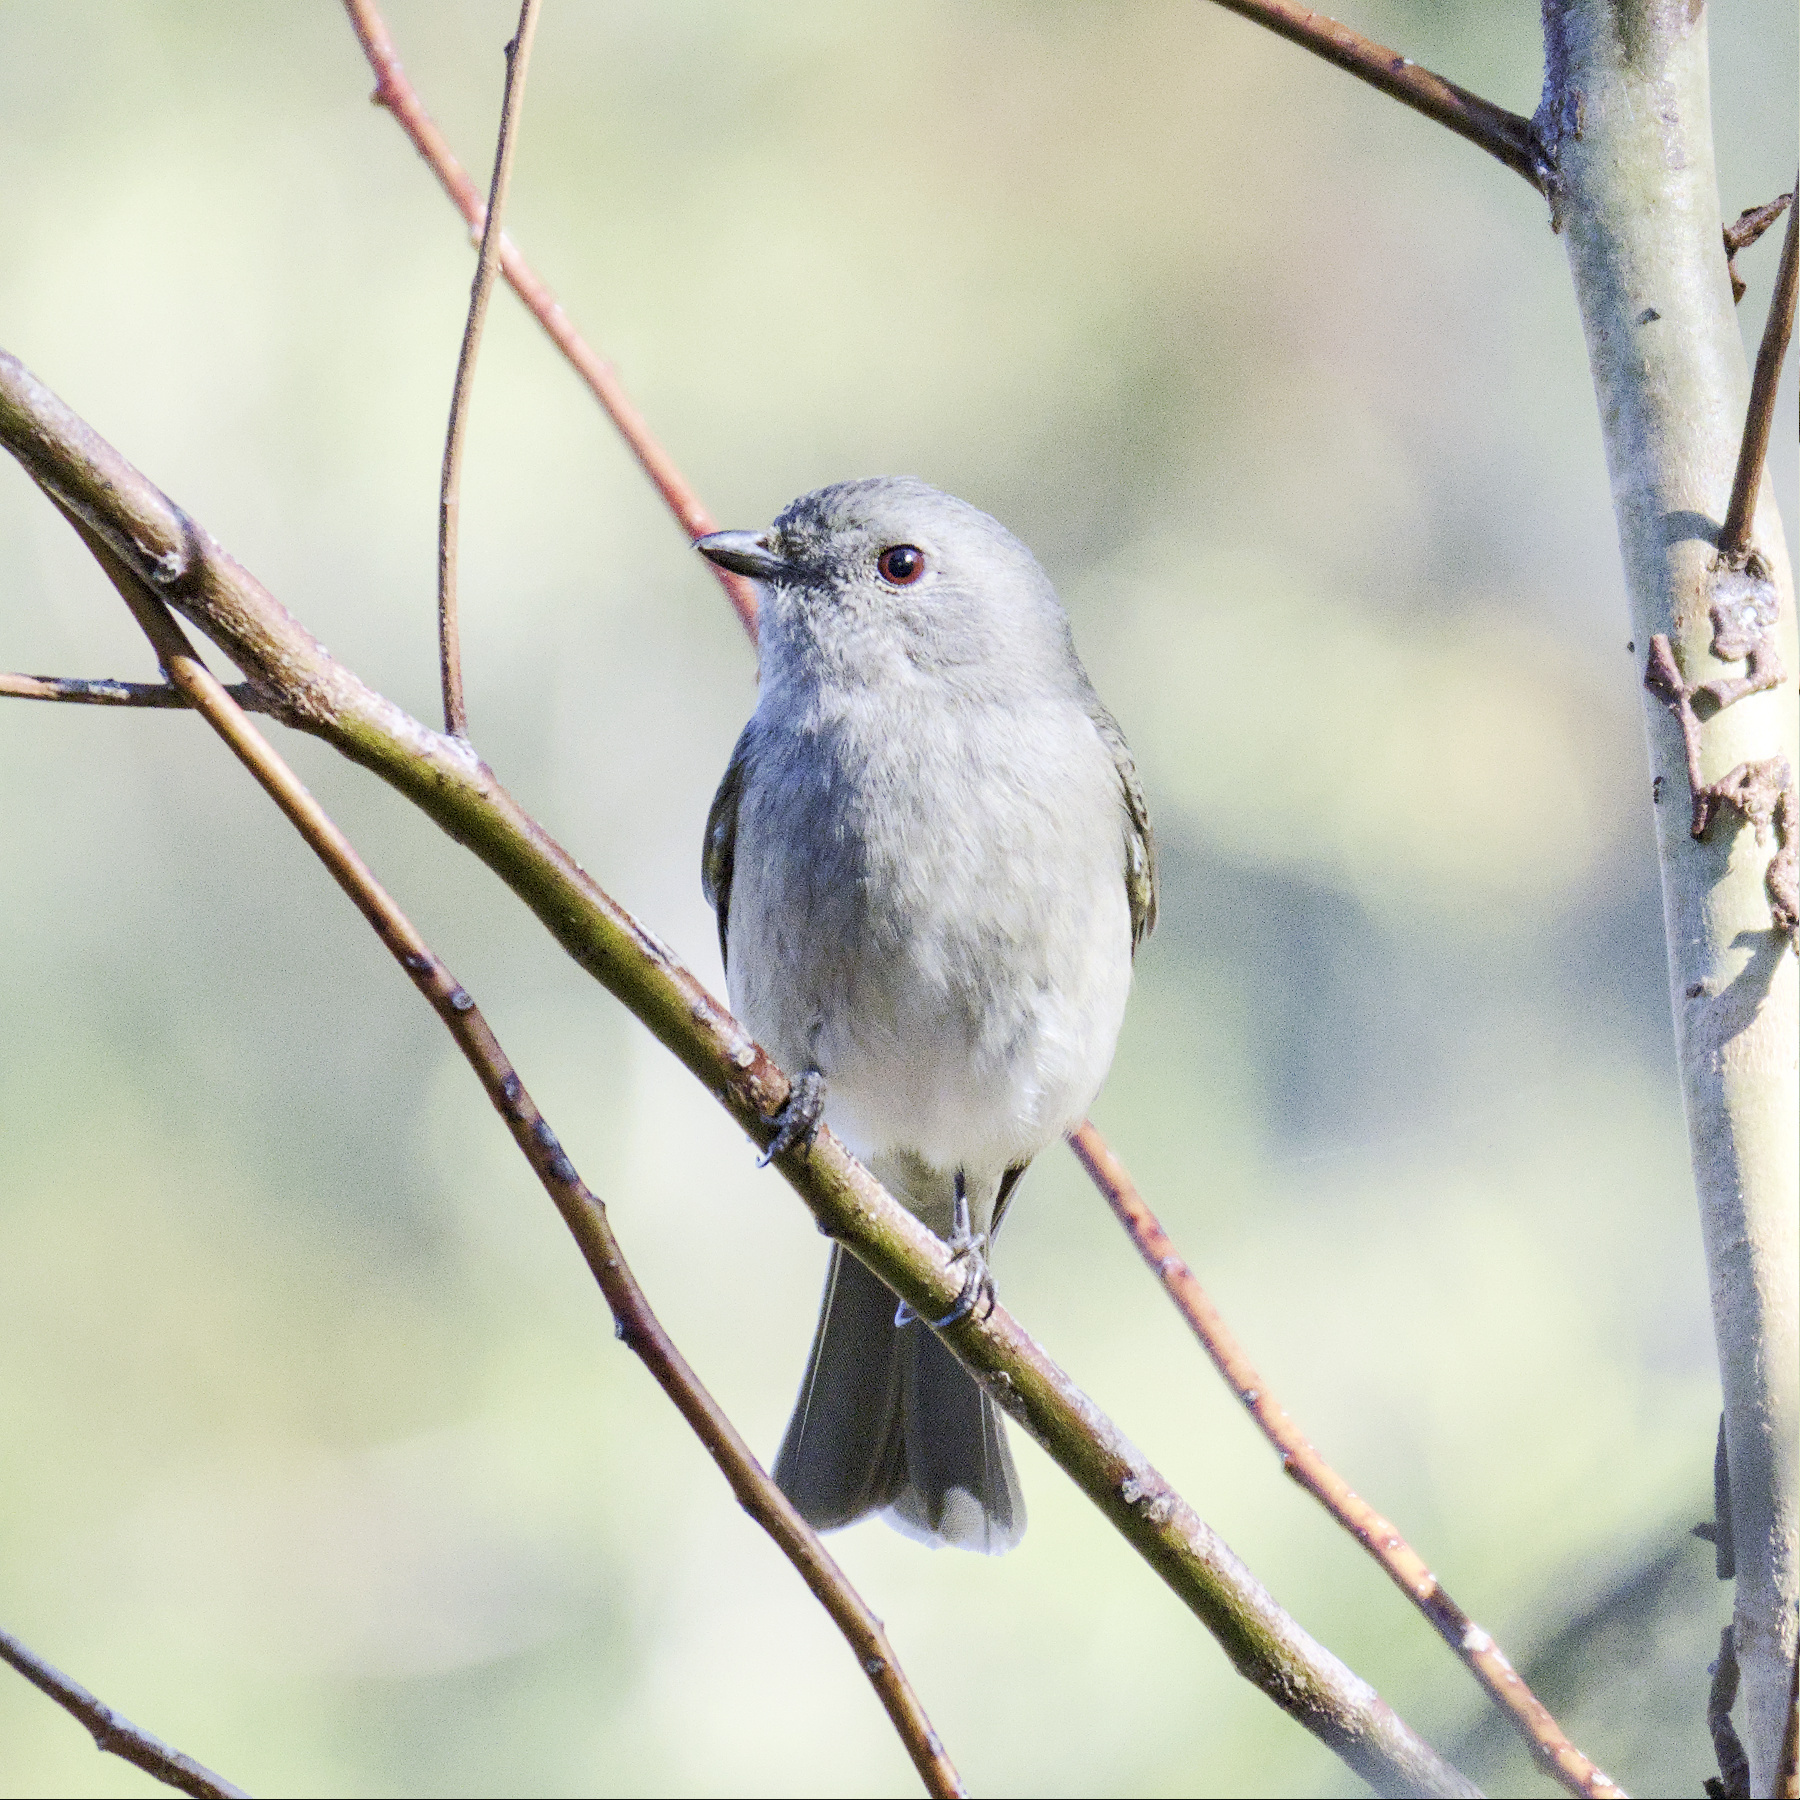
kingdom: Animalia
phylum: Chordata
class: Aves
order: Passeriformes
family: Pachycephalidae
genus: Pachycephala
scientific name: Pachycephala pectoralis
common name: Australian golden whistler
